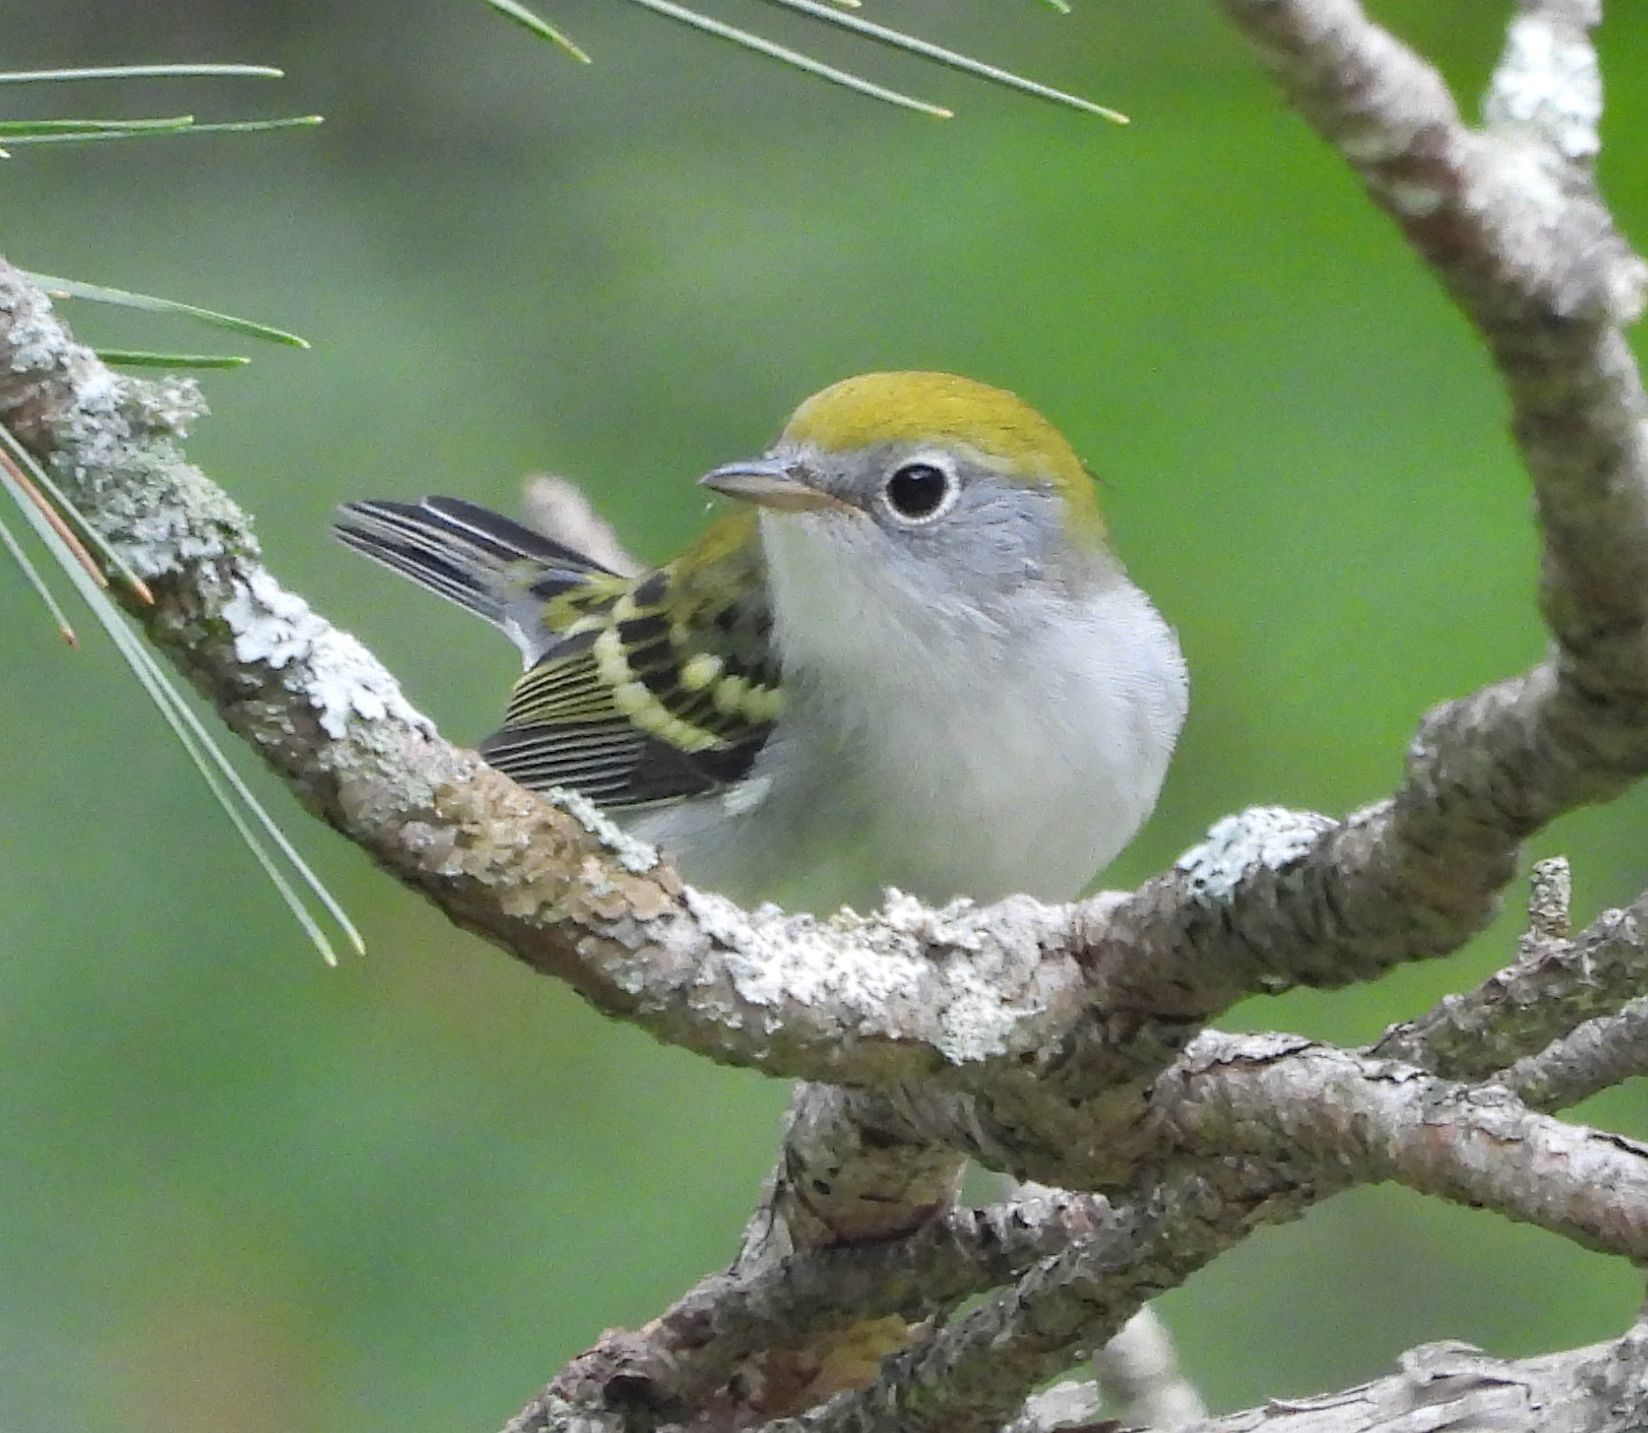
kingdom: Animalia
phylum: Chordata
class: Aves
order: Passeriformes
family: Parulidae
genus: Setophaga
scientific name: Setophaga pensylvanica
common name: Chestnut-sided warbler
